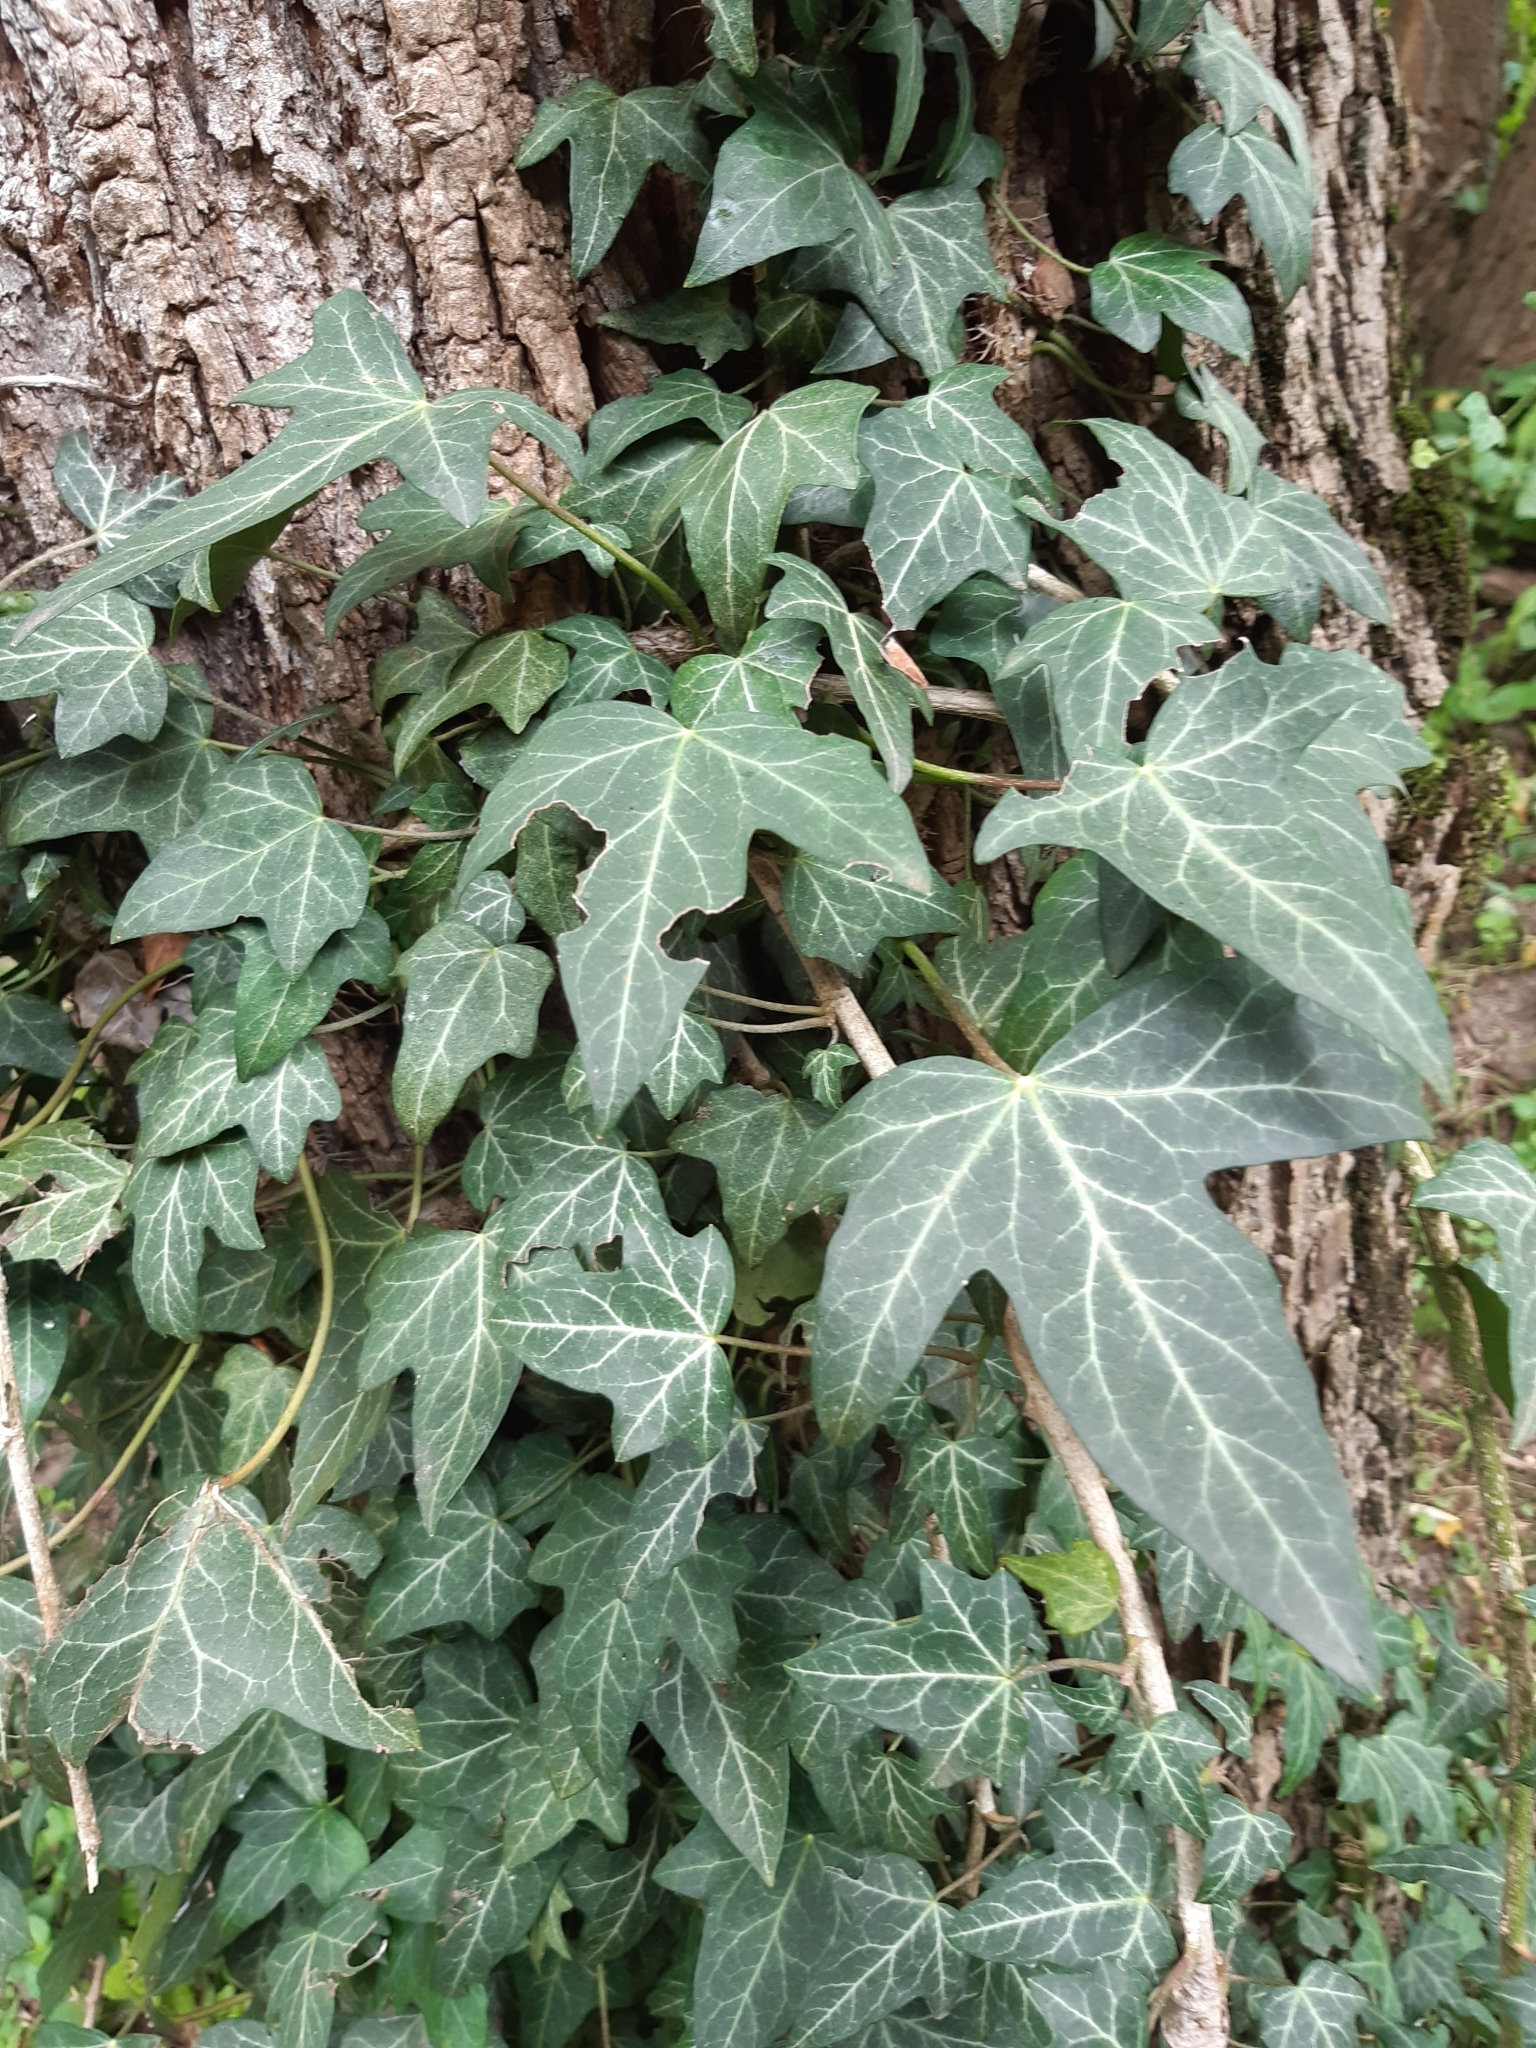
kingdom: Plantae
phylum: Tracheophyta
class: Magnoliopsida
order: Apiales
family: Araliaceae
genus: Hedera
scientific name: Hedera helix
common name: Ivy
